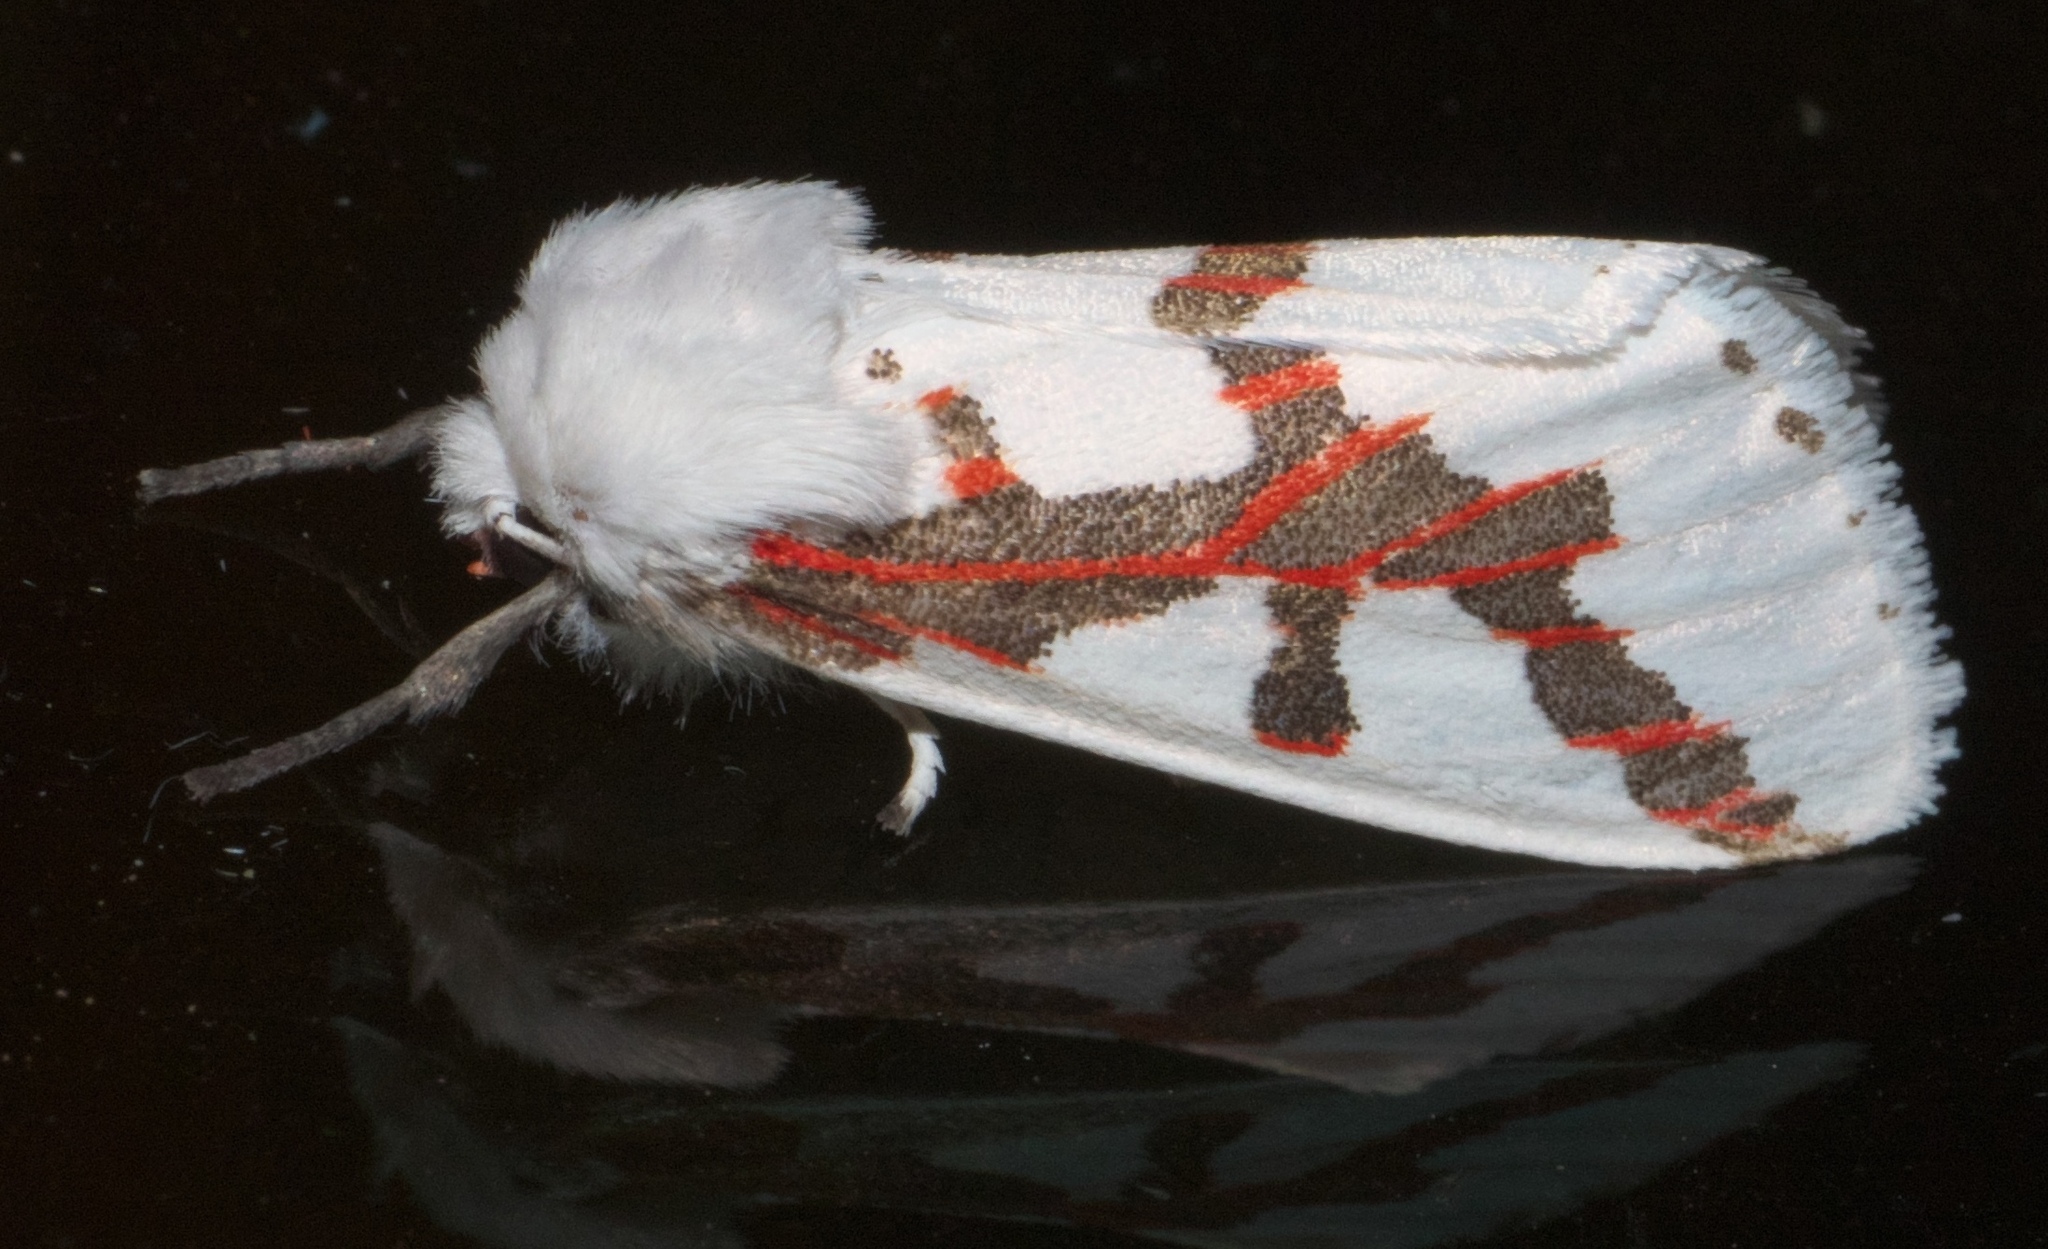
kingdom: Animalia
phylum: Arthropoda
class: Insecta
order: Lepidoptera
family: Erebidae
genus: Euerythra
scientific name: Euerythra phasma
